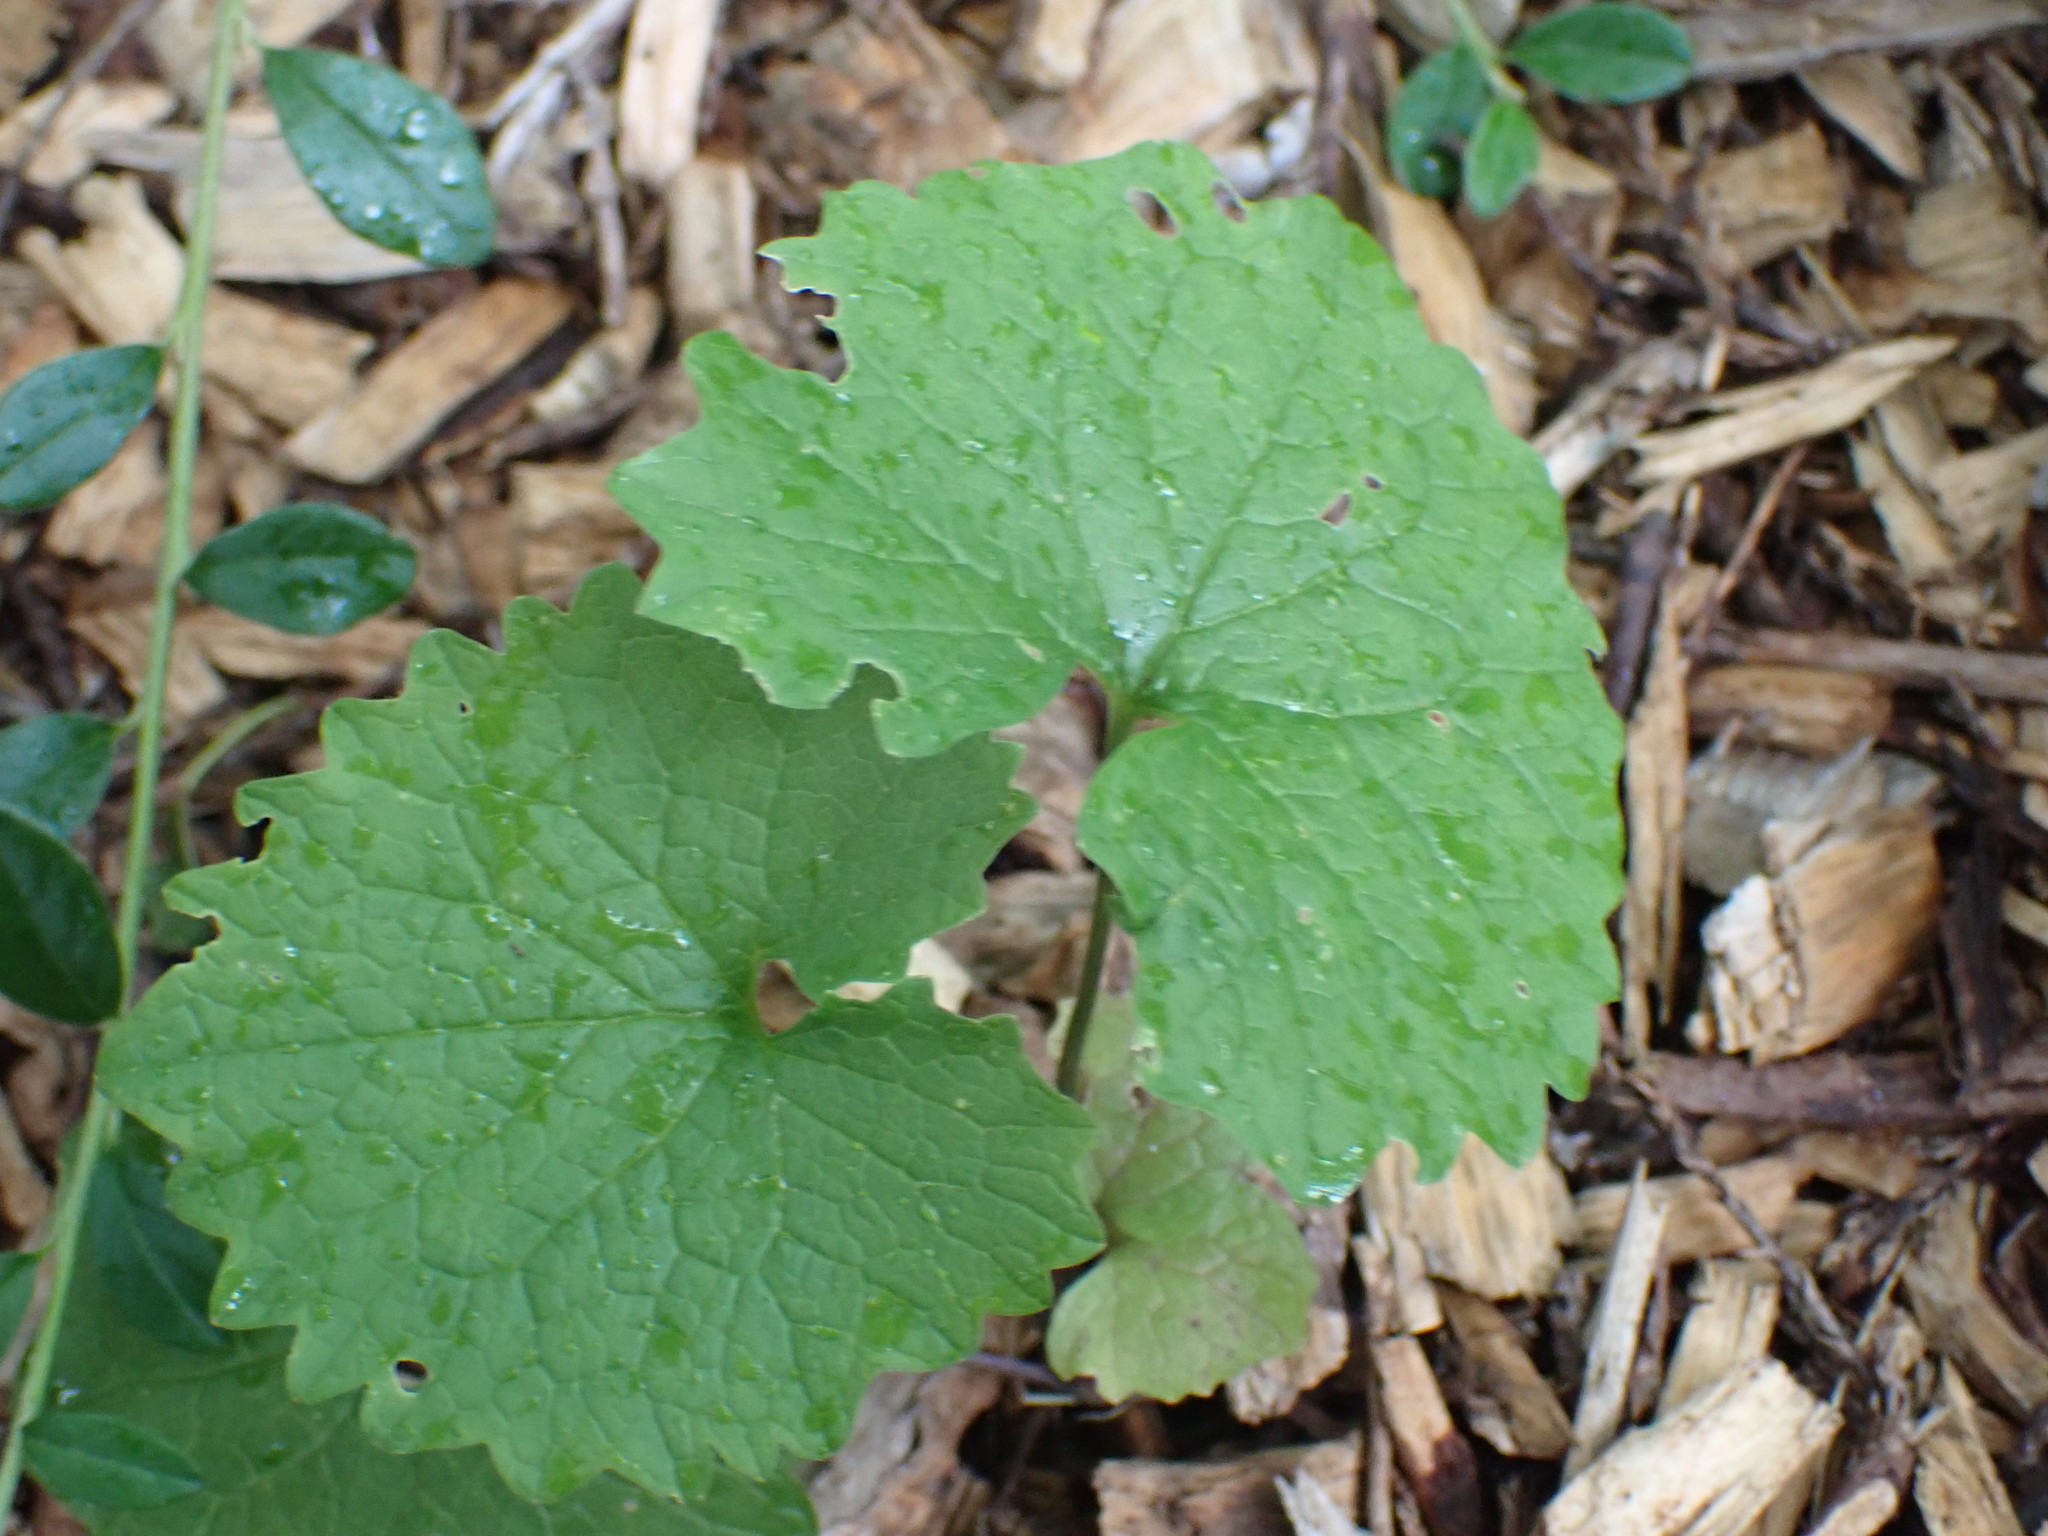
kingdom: Plantae
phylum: Tracheophyta
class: Magnoliopsida
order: Brassicales
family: Brassicaceae
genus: Alliaria
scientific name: Alliaria petiolata
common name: Garlic mustard
